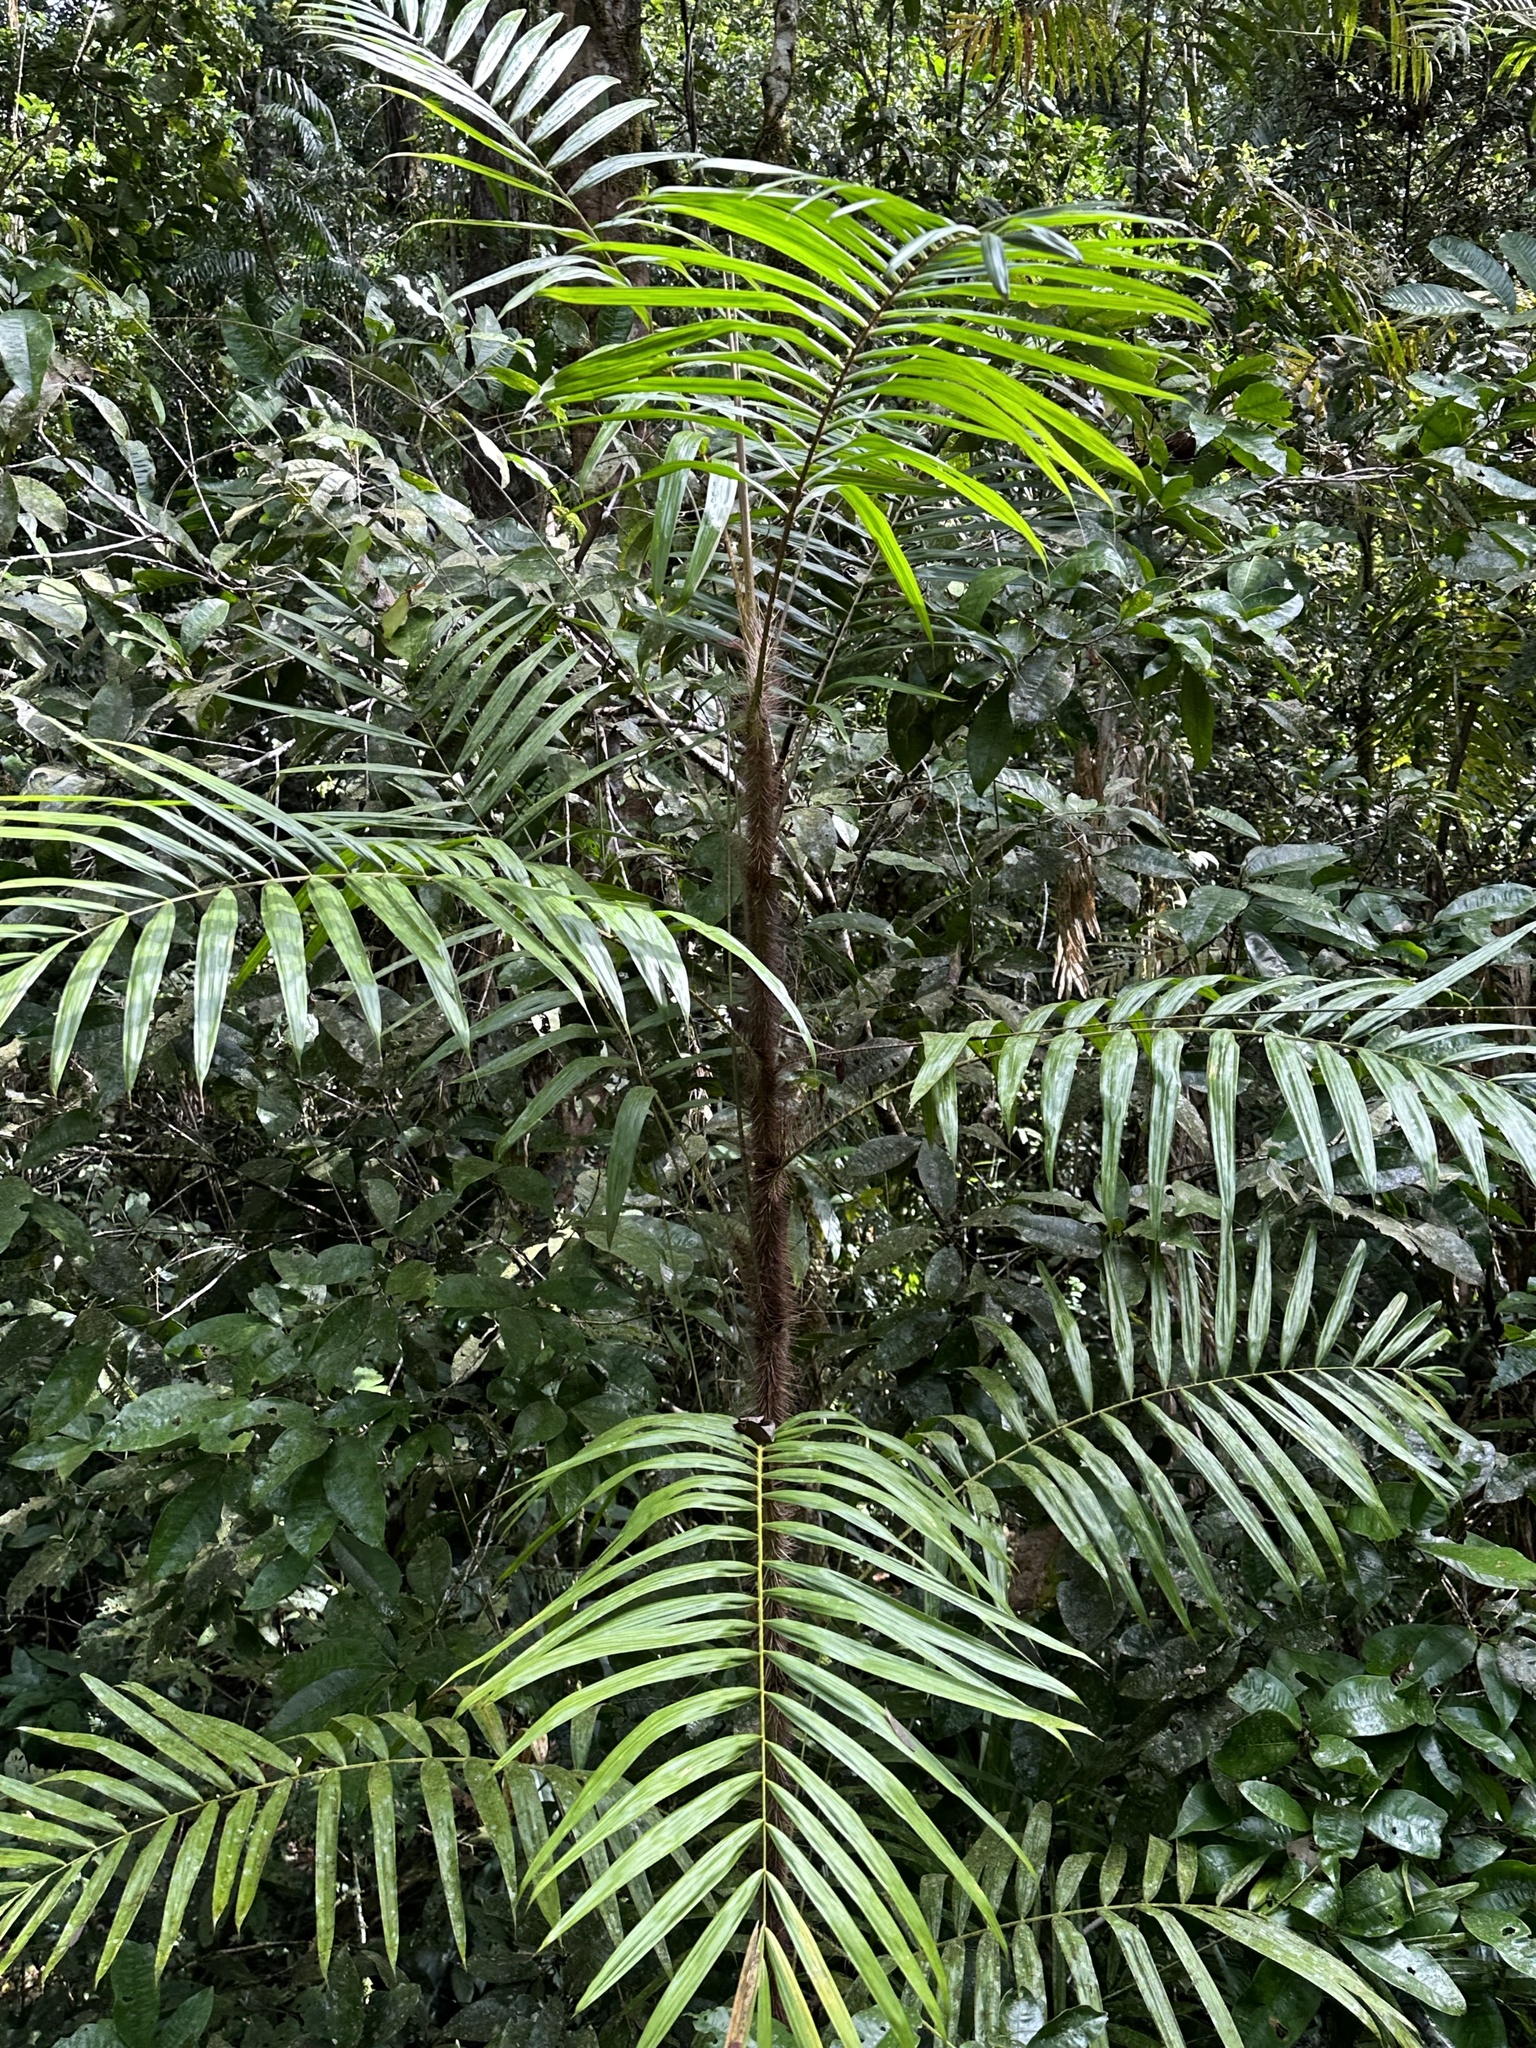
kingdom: Plantae
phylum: Tracheophyta
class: Liliopsida
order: Arecales
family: Arecaceae
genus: Calamus
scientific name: Calamus australis
